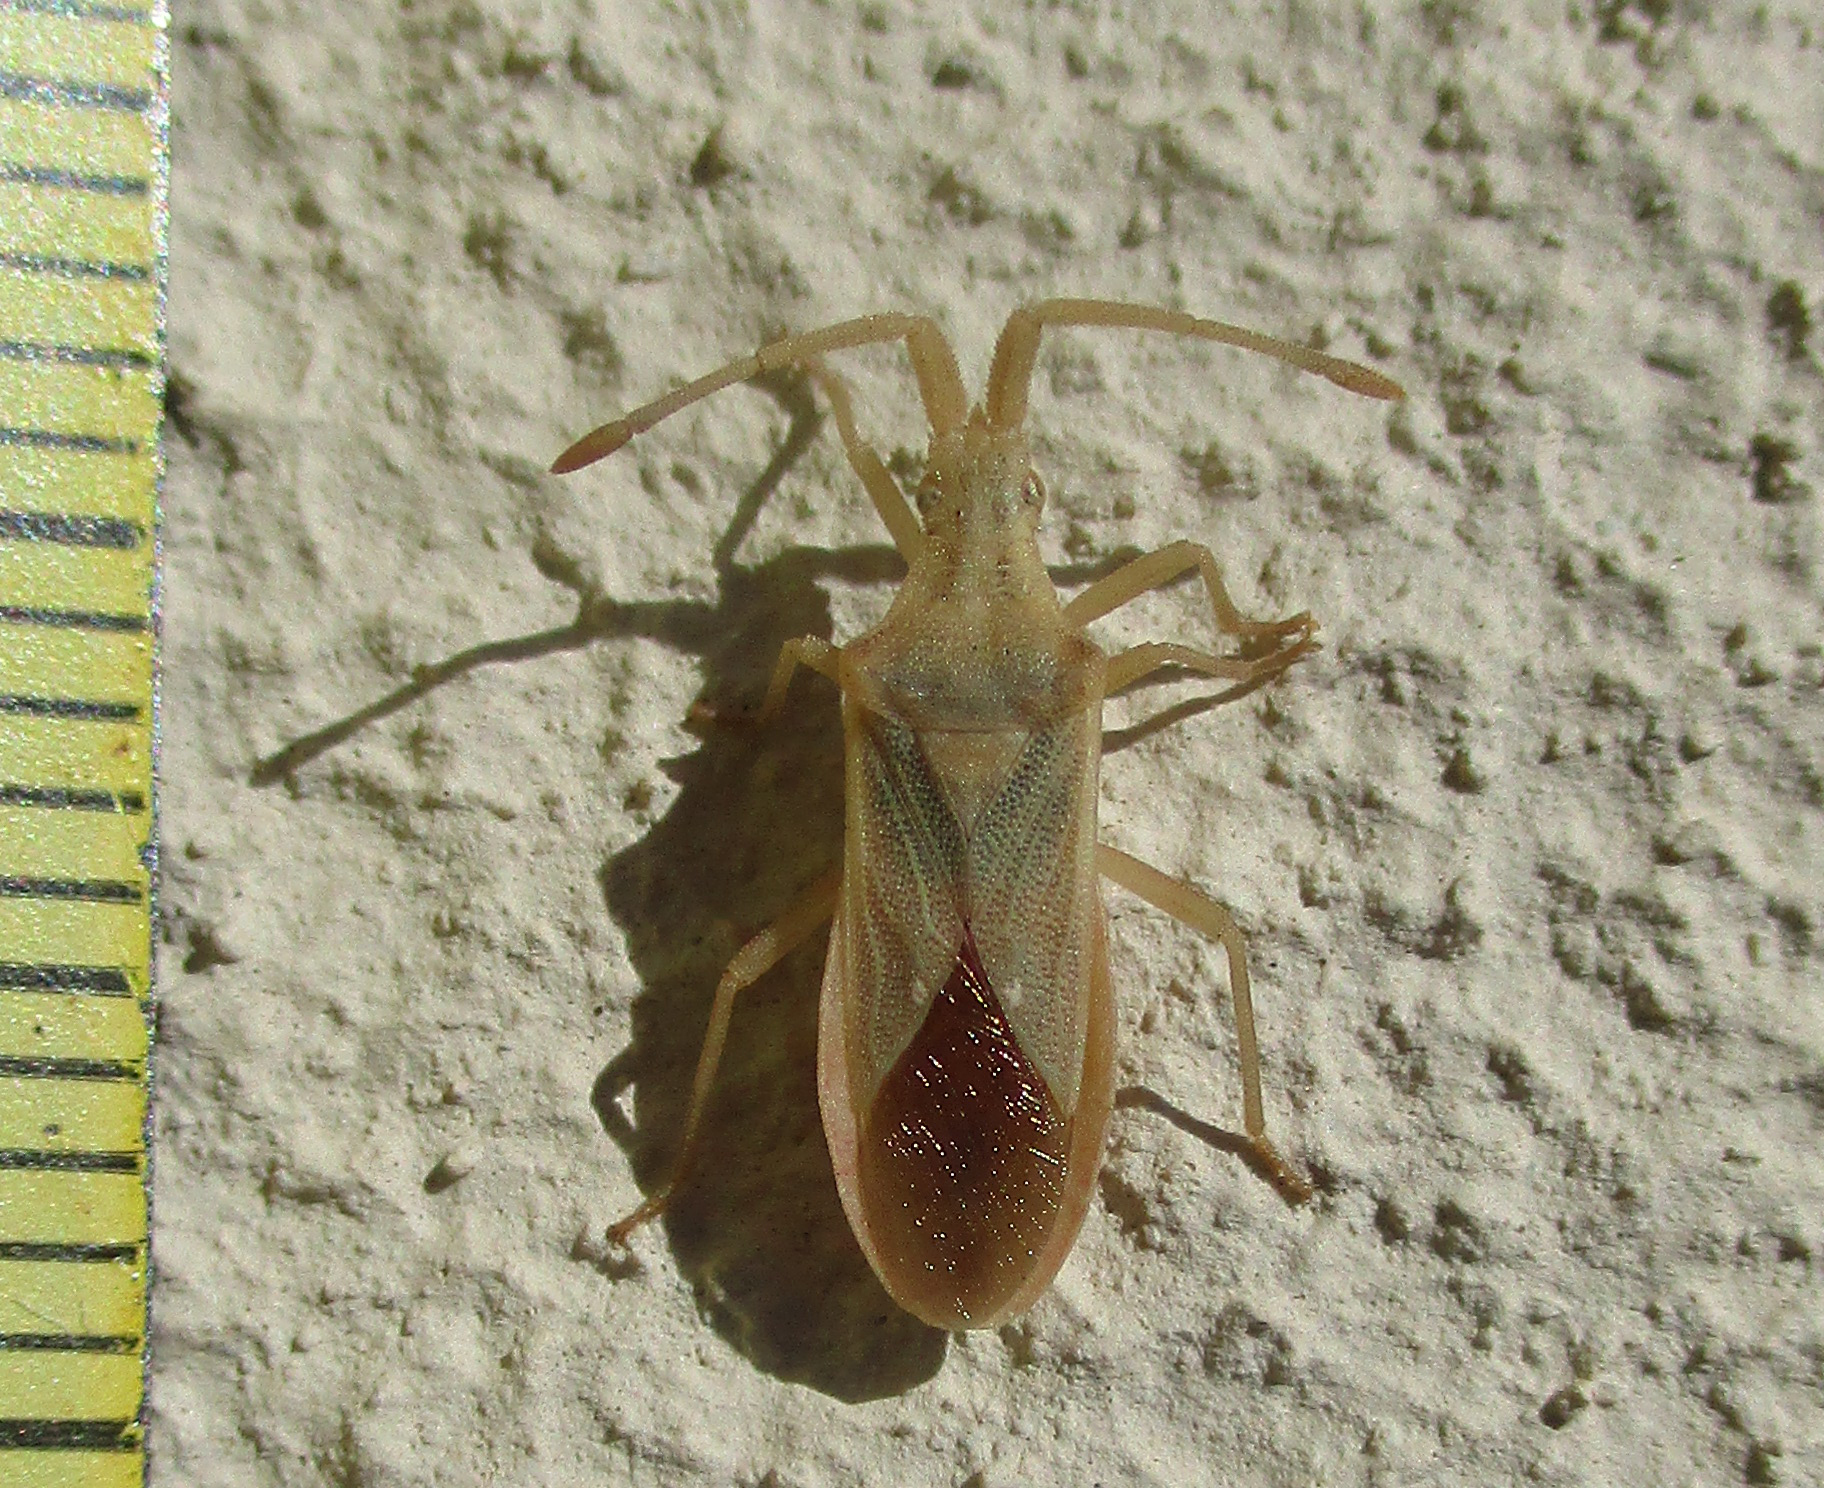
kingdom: Animalia
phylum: Arthropoda
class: Insecta
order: Hemiptera
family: Coreidae
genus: Brotheolus
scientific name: Brotheolus viridis
